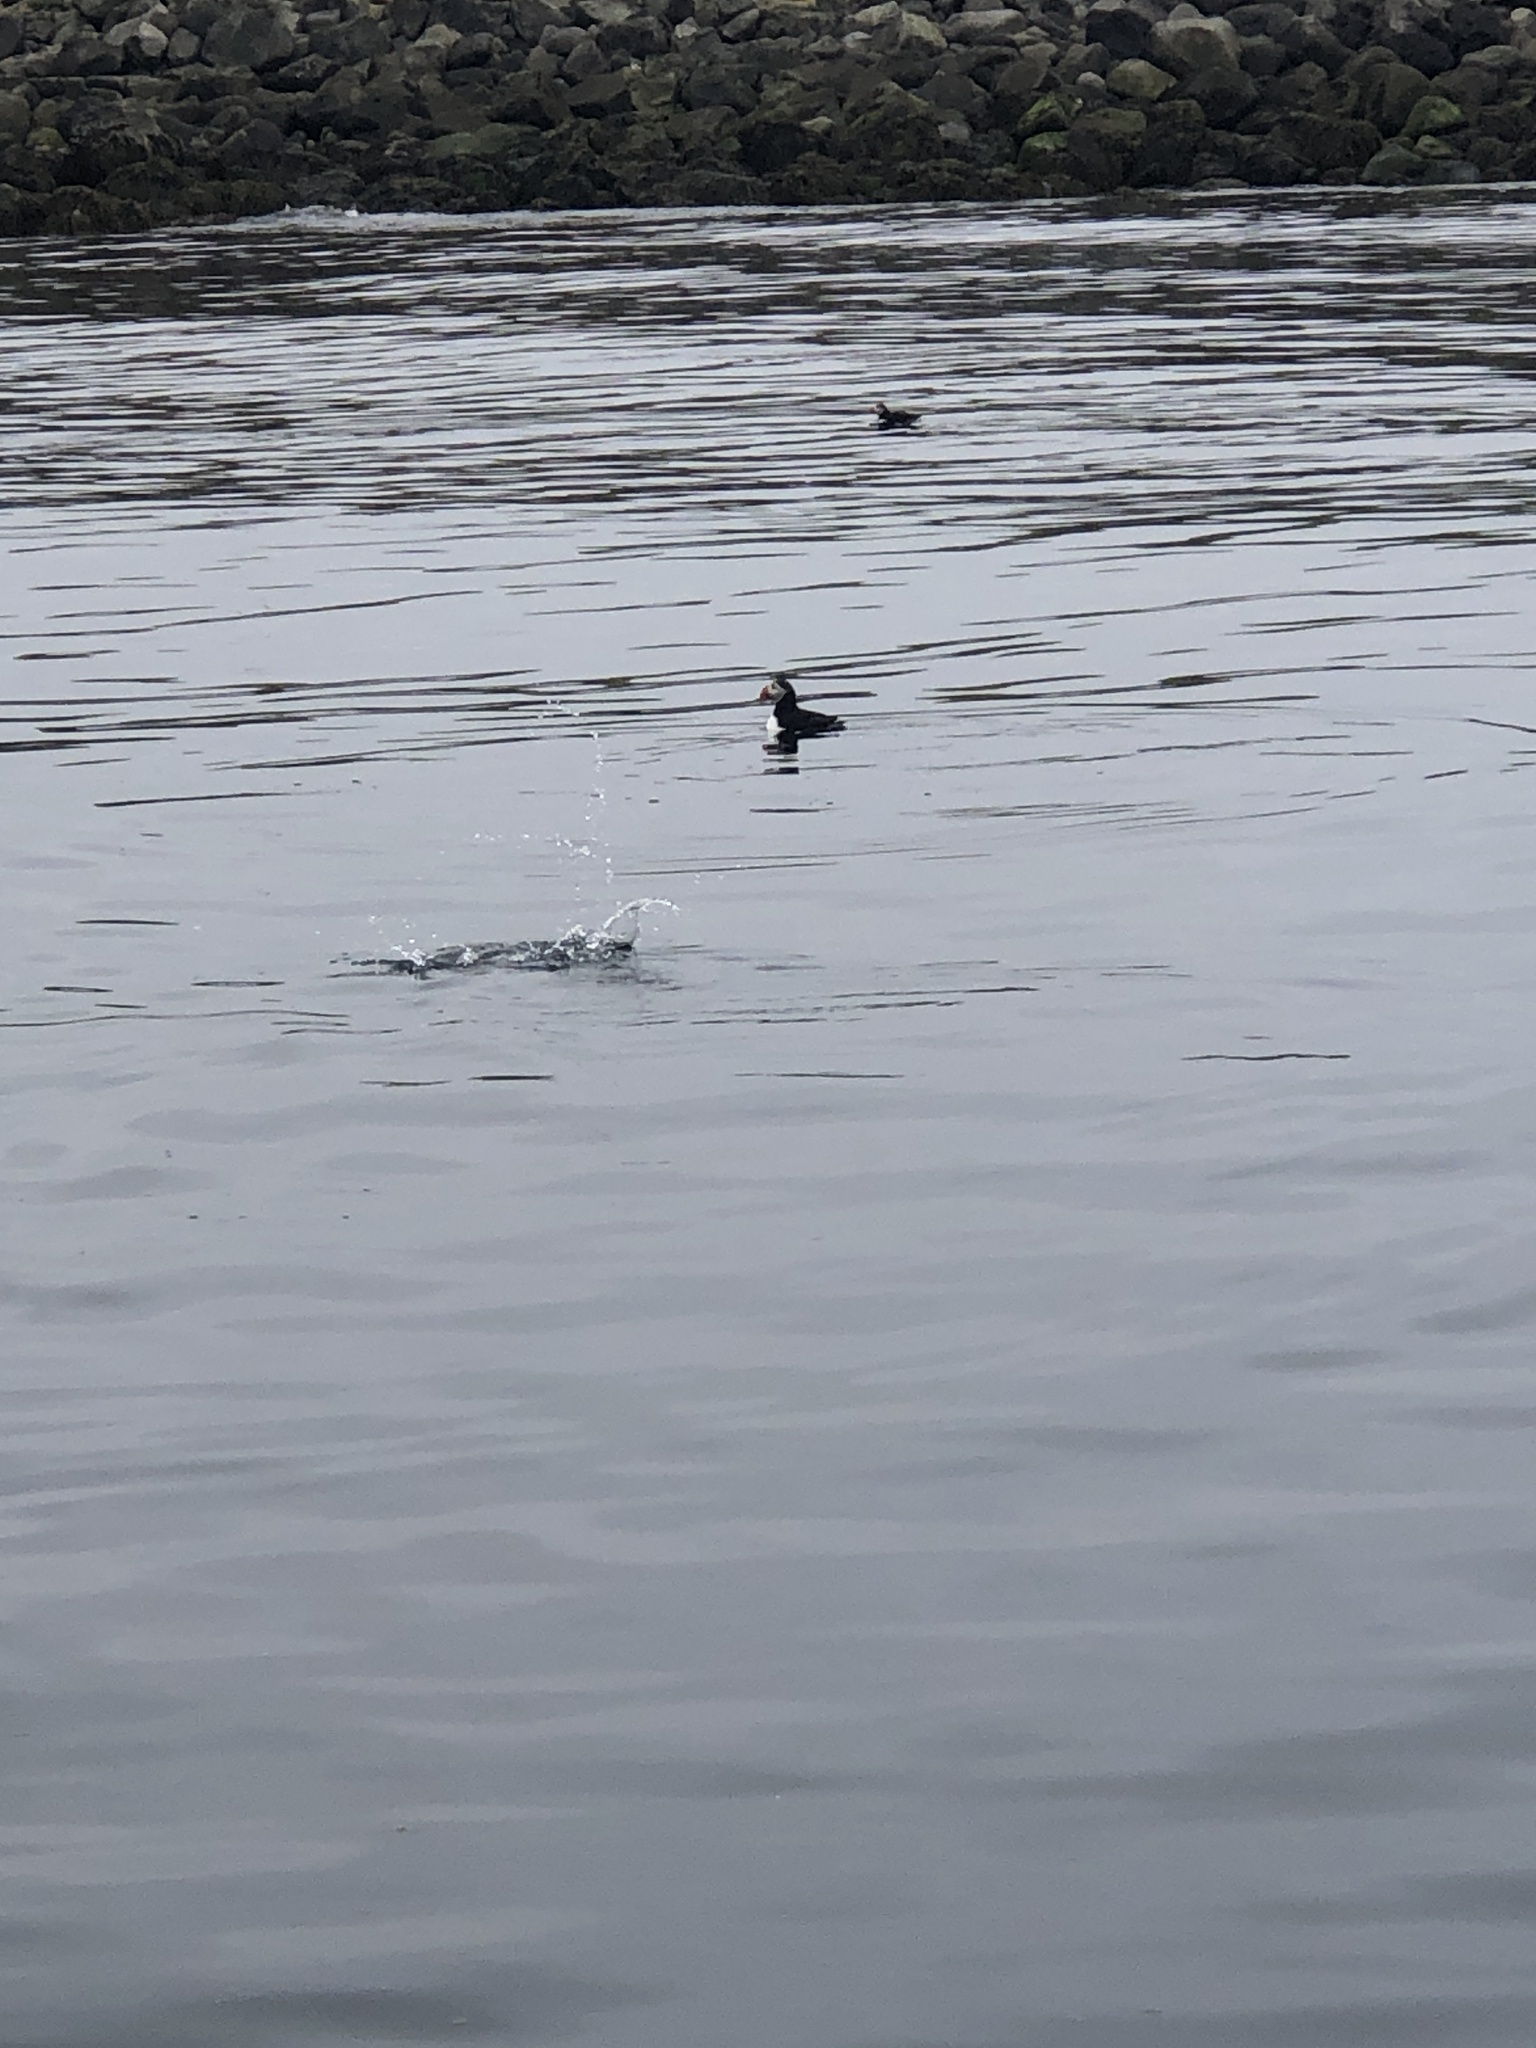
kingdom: Animalia
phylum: Chordata
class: Aves
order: Charadriiformes
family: Alcidae
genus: Fratercula
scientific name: Fratercula arctica
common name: Atlantic puffin
